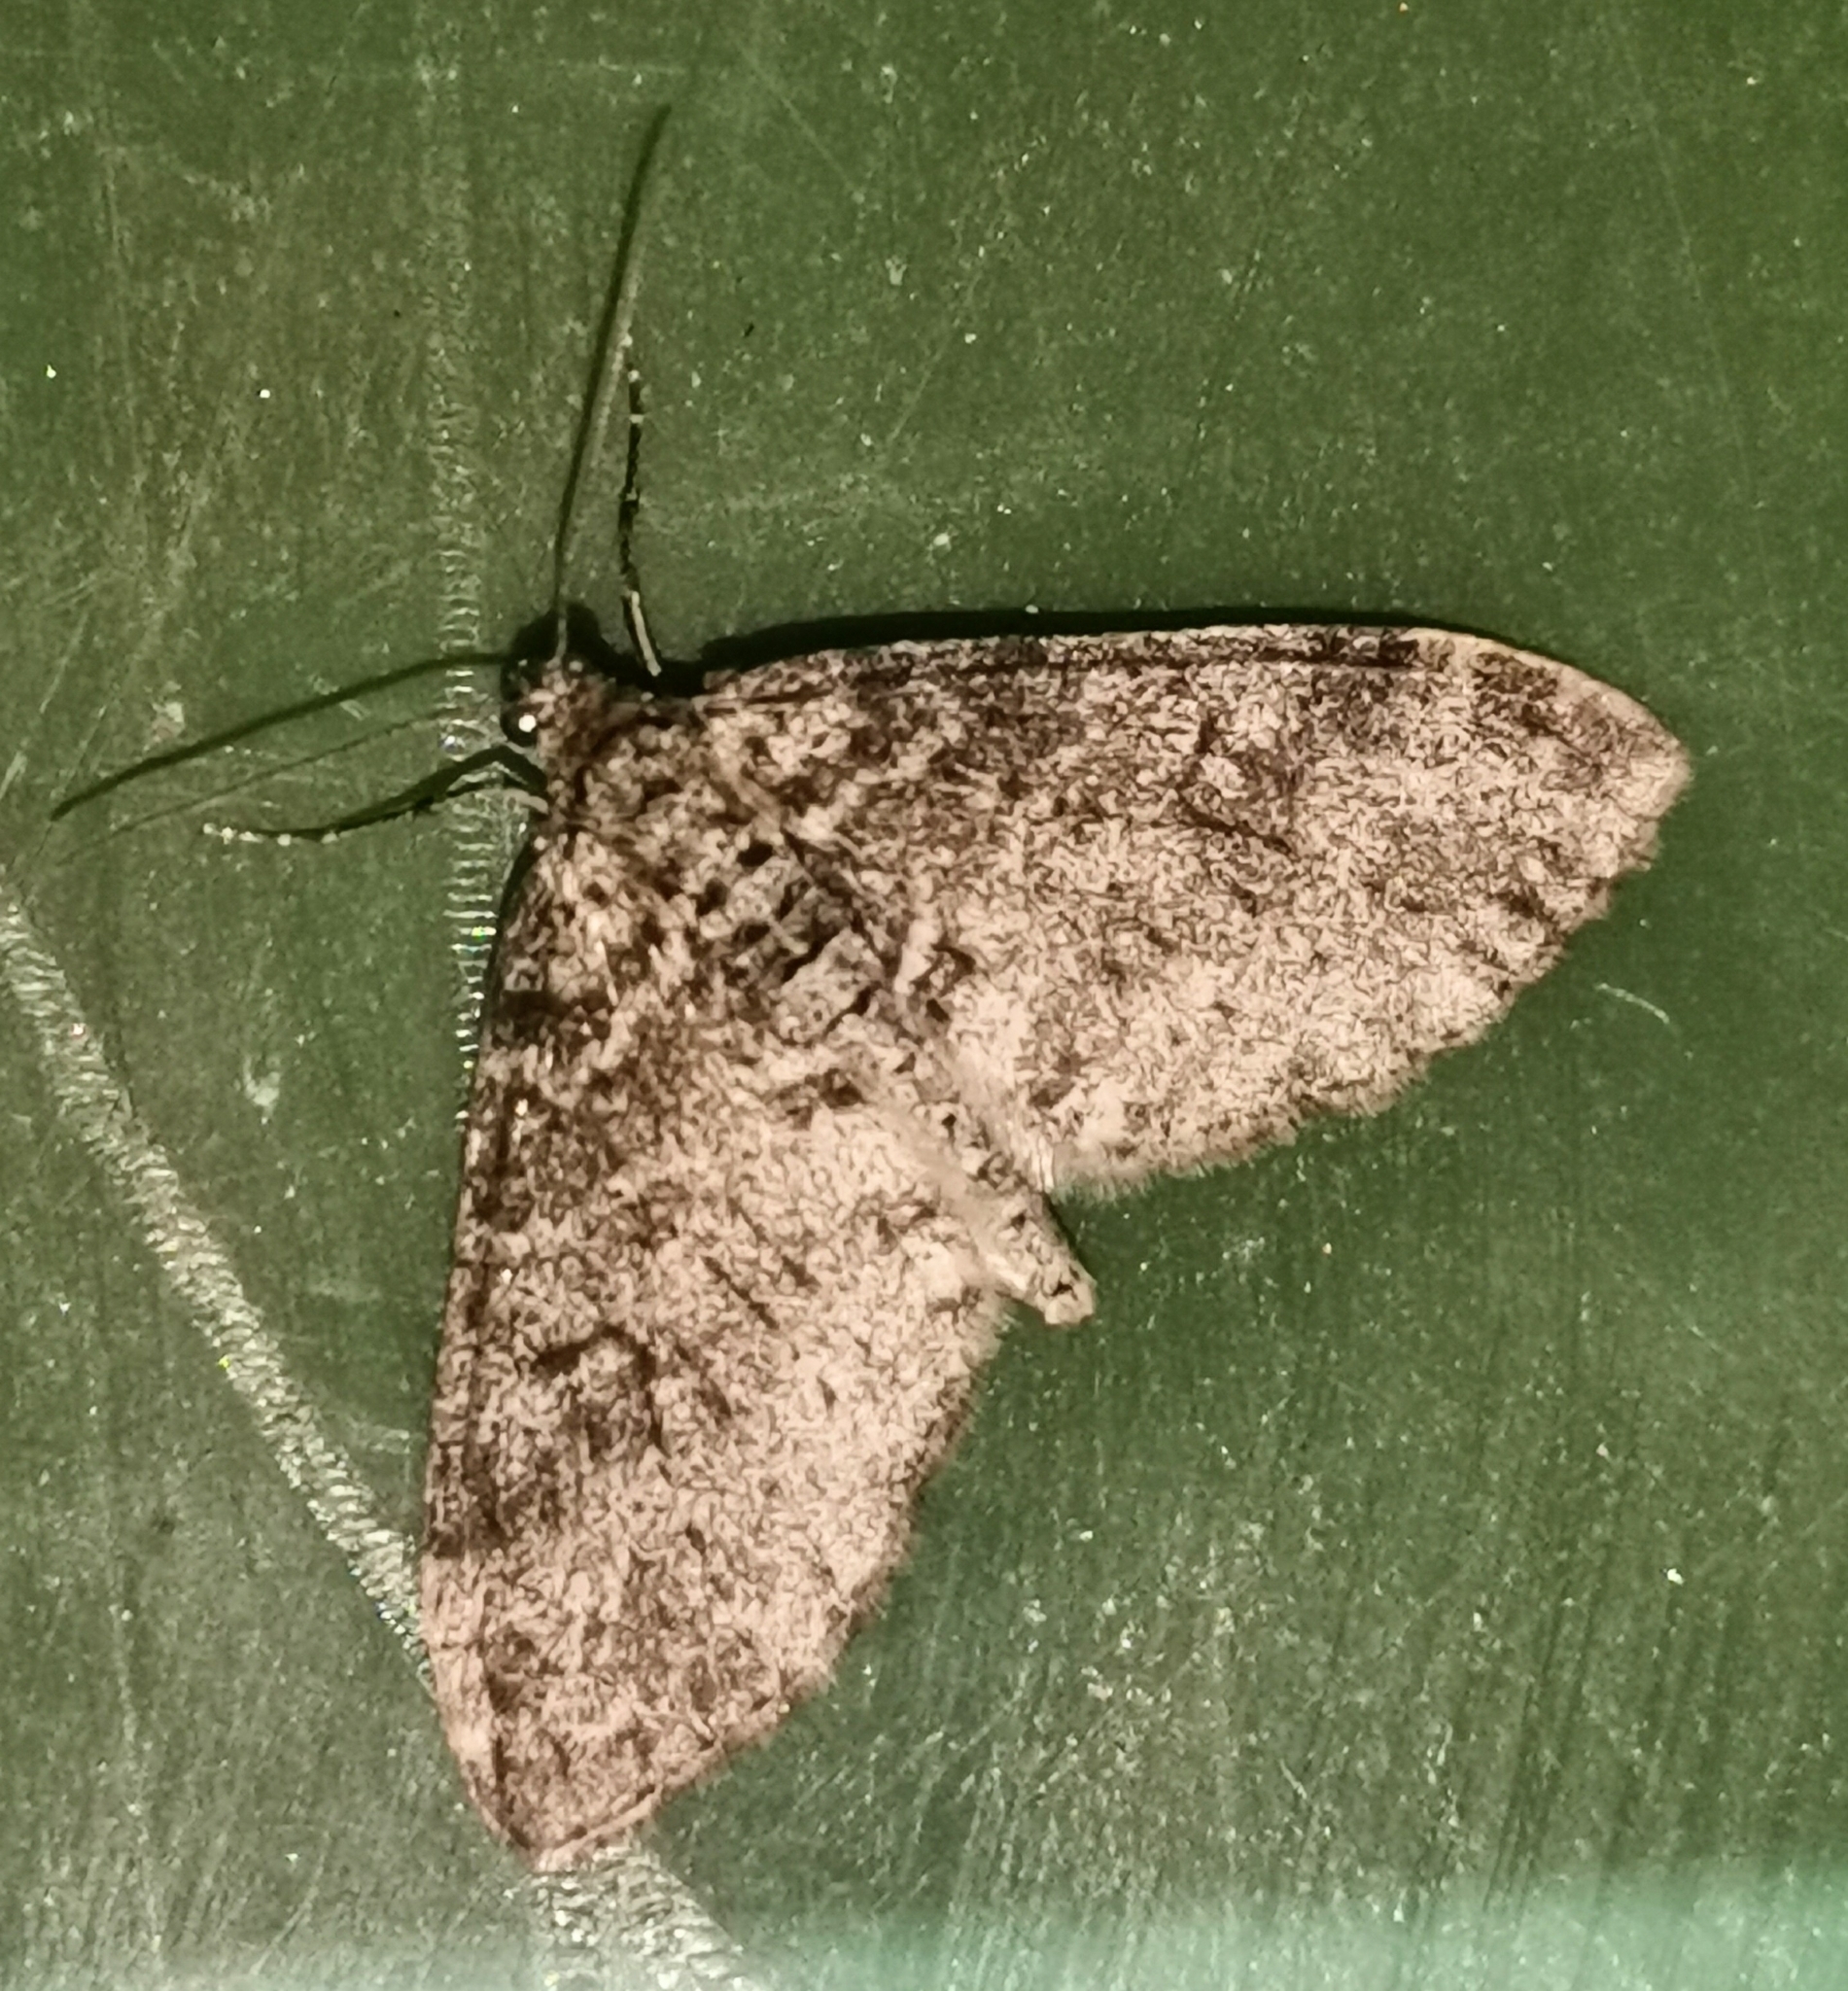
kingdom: Animalia
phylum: Arthropoda
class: Insecta
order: Lepidoptera
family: Geometridae
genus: Lobophora
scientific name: Lobophora halterata
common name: Seraphim
